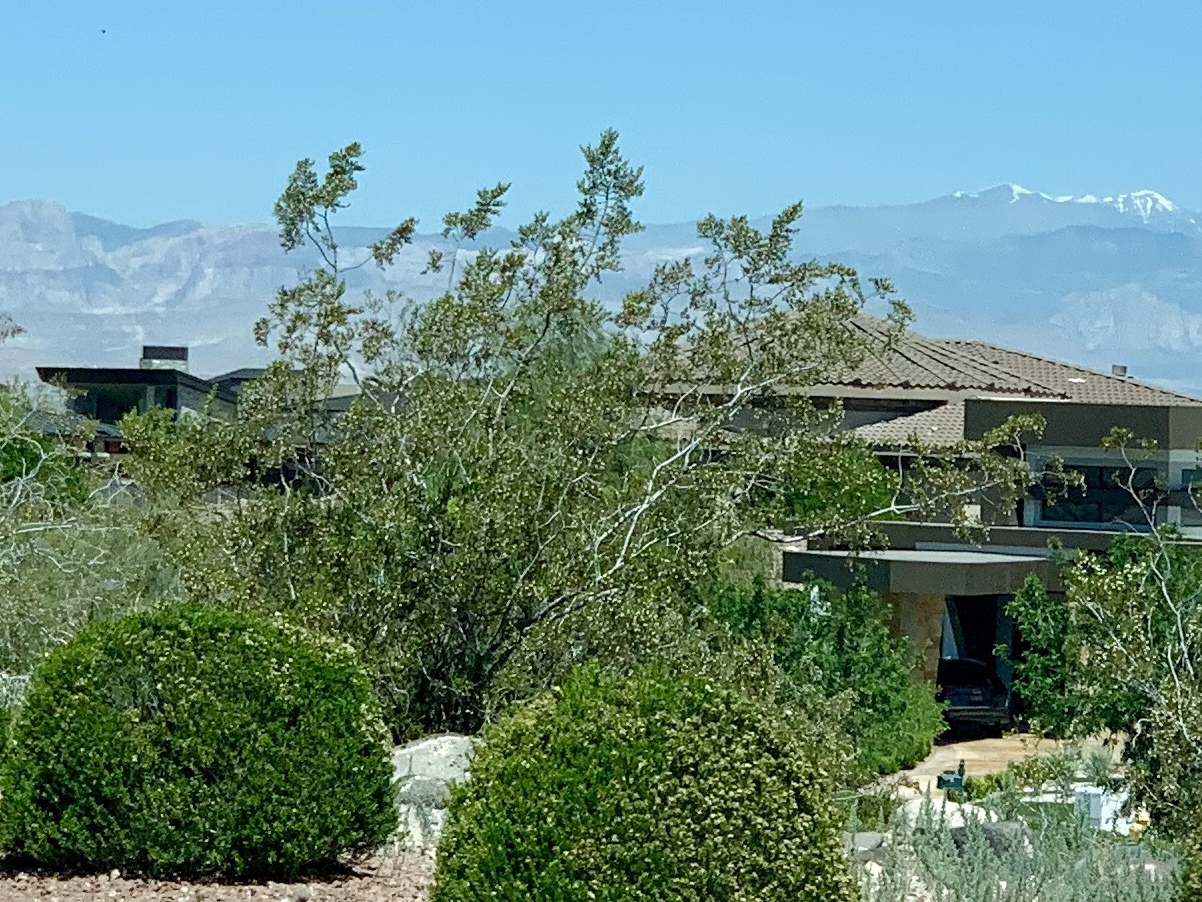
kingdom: Plantae
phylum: Tracheophyta
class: Magnoliopsida
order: Zygophyllales
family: Zygophyllaceae
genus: Larrea
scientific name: Larrea tridentata
